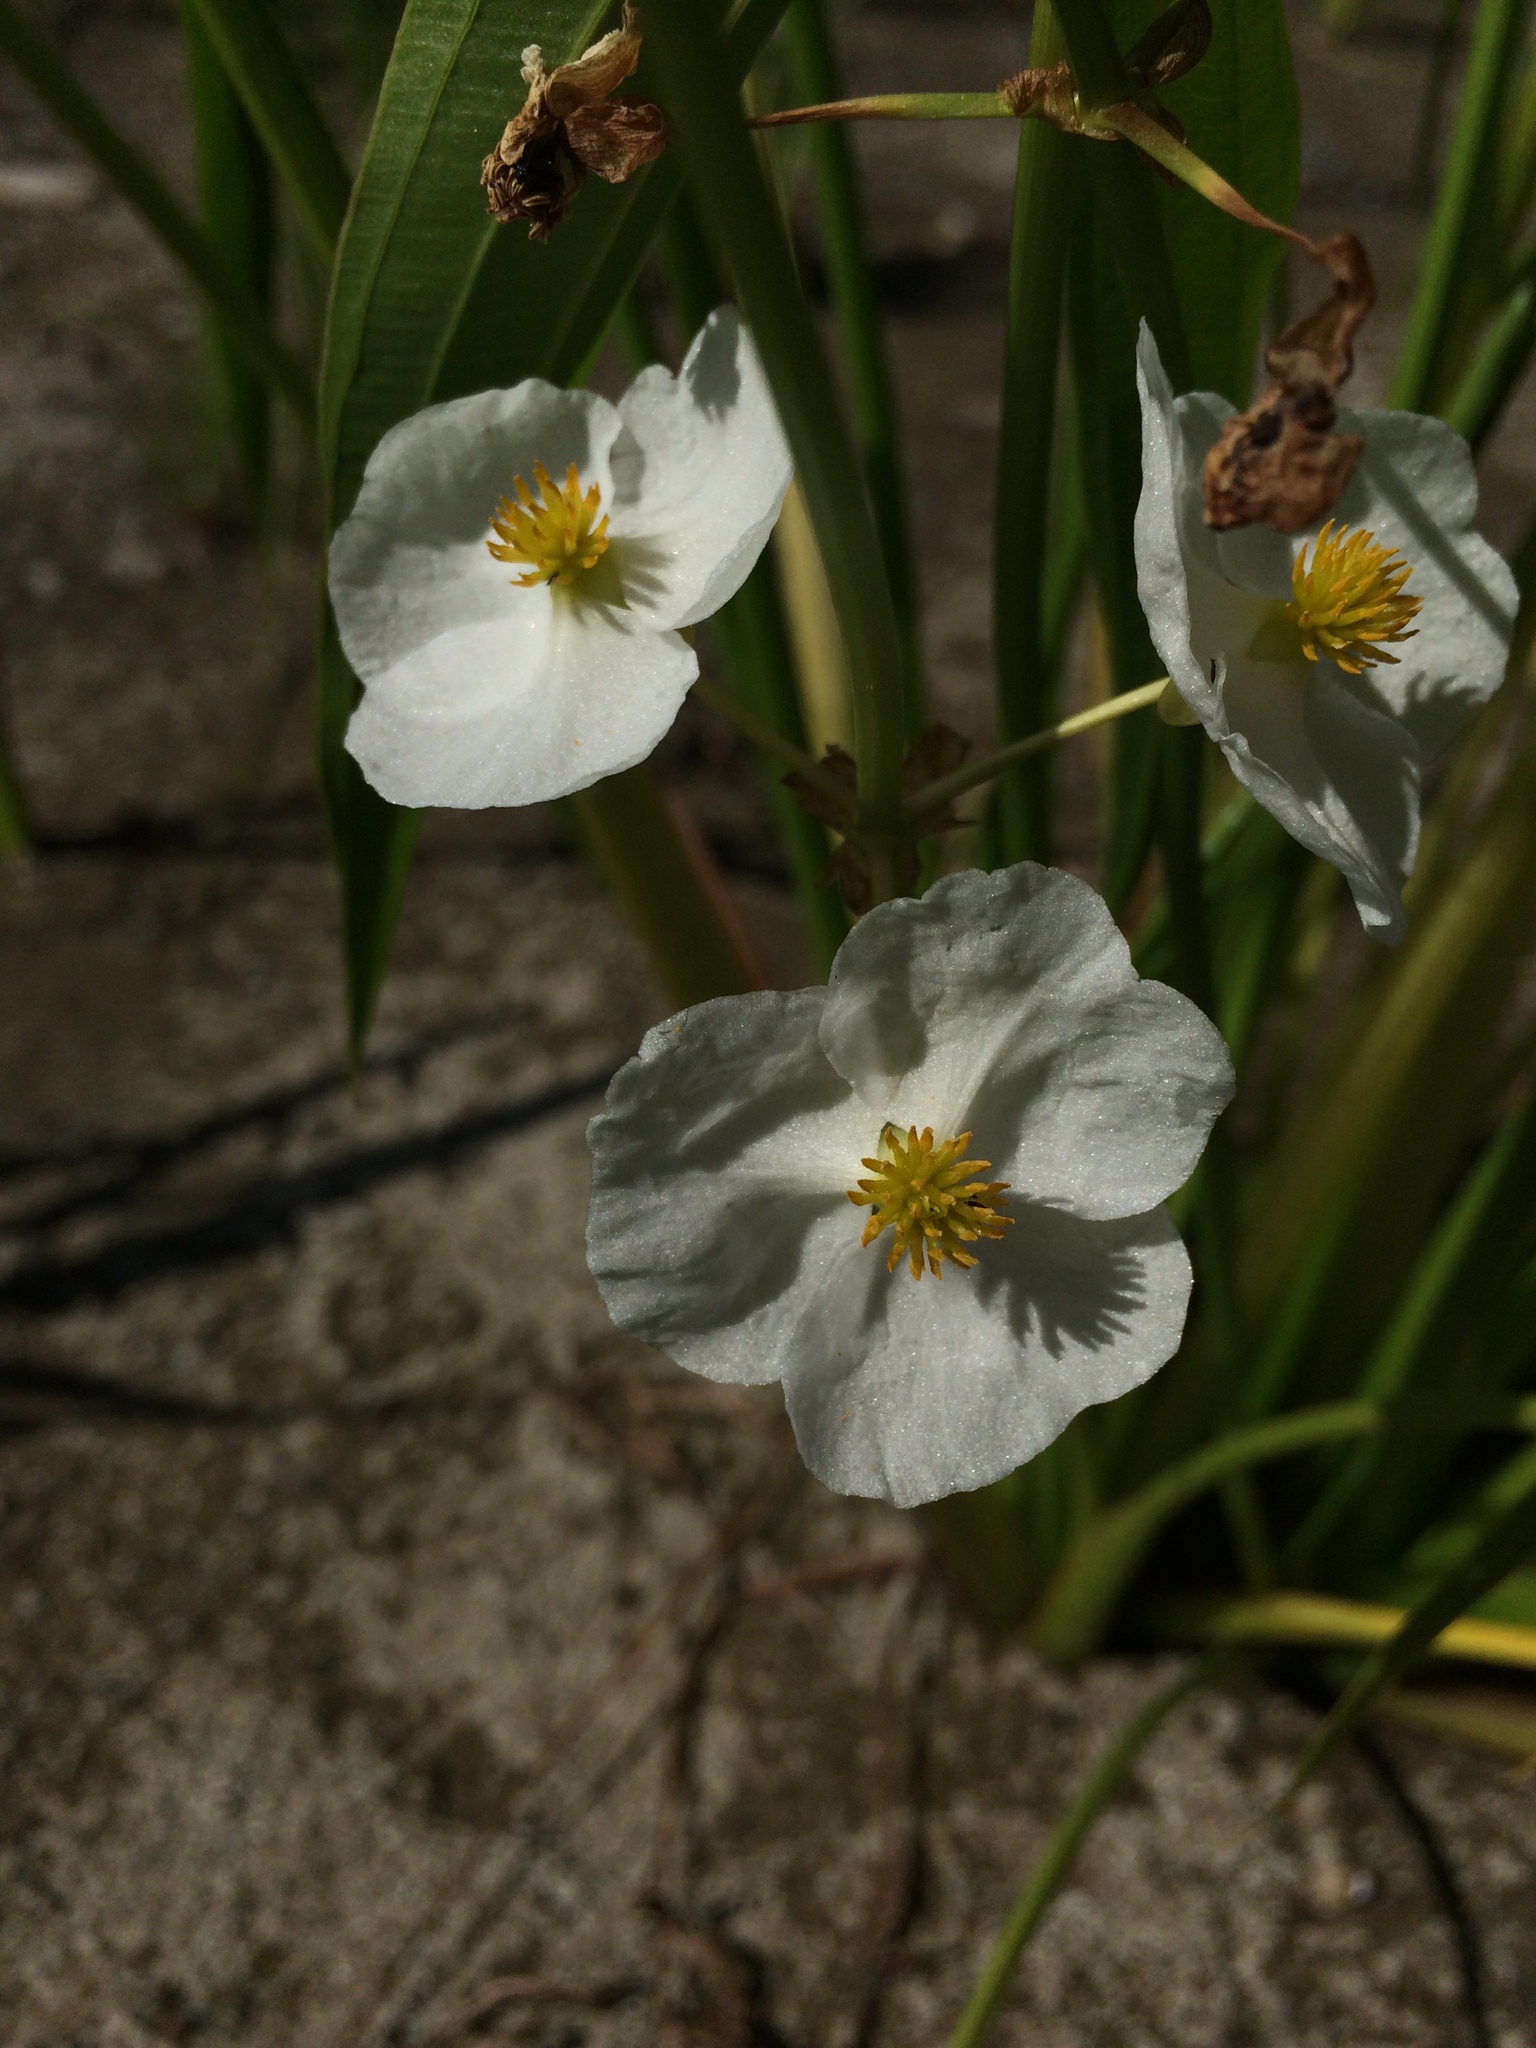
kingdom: Plantae
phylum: Tracheophyta
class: Liliopsida
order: Alismatales
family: Alismataceae
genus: Sagittaria
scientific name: Sagittaria latifolia
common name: Duck-potato
